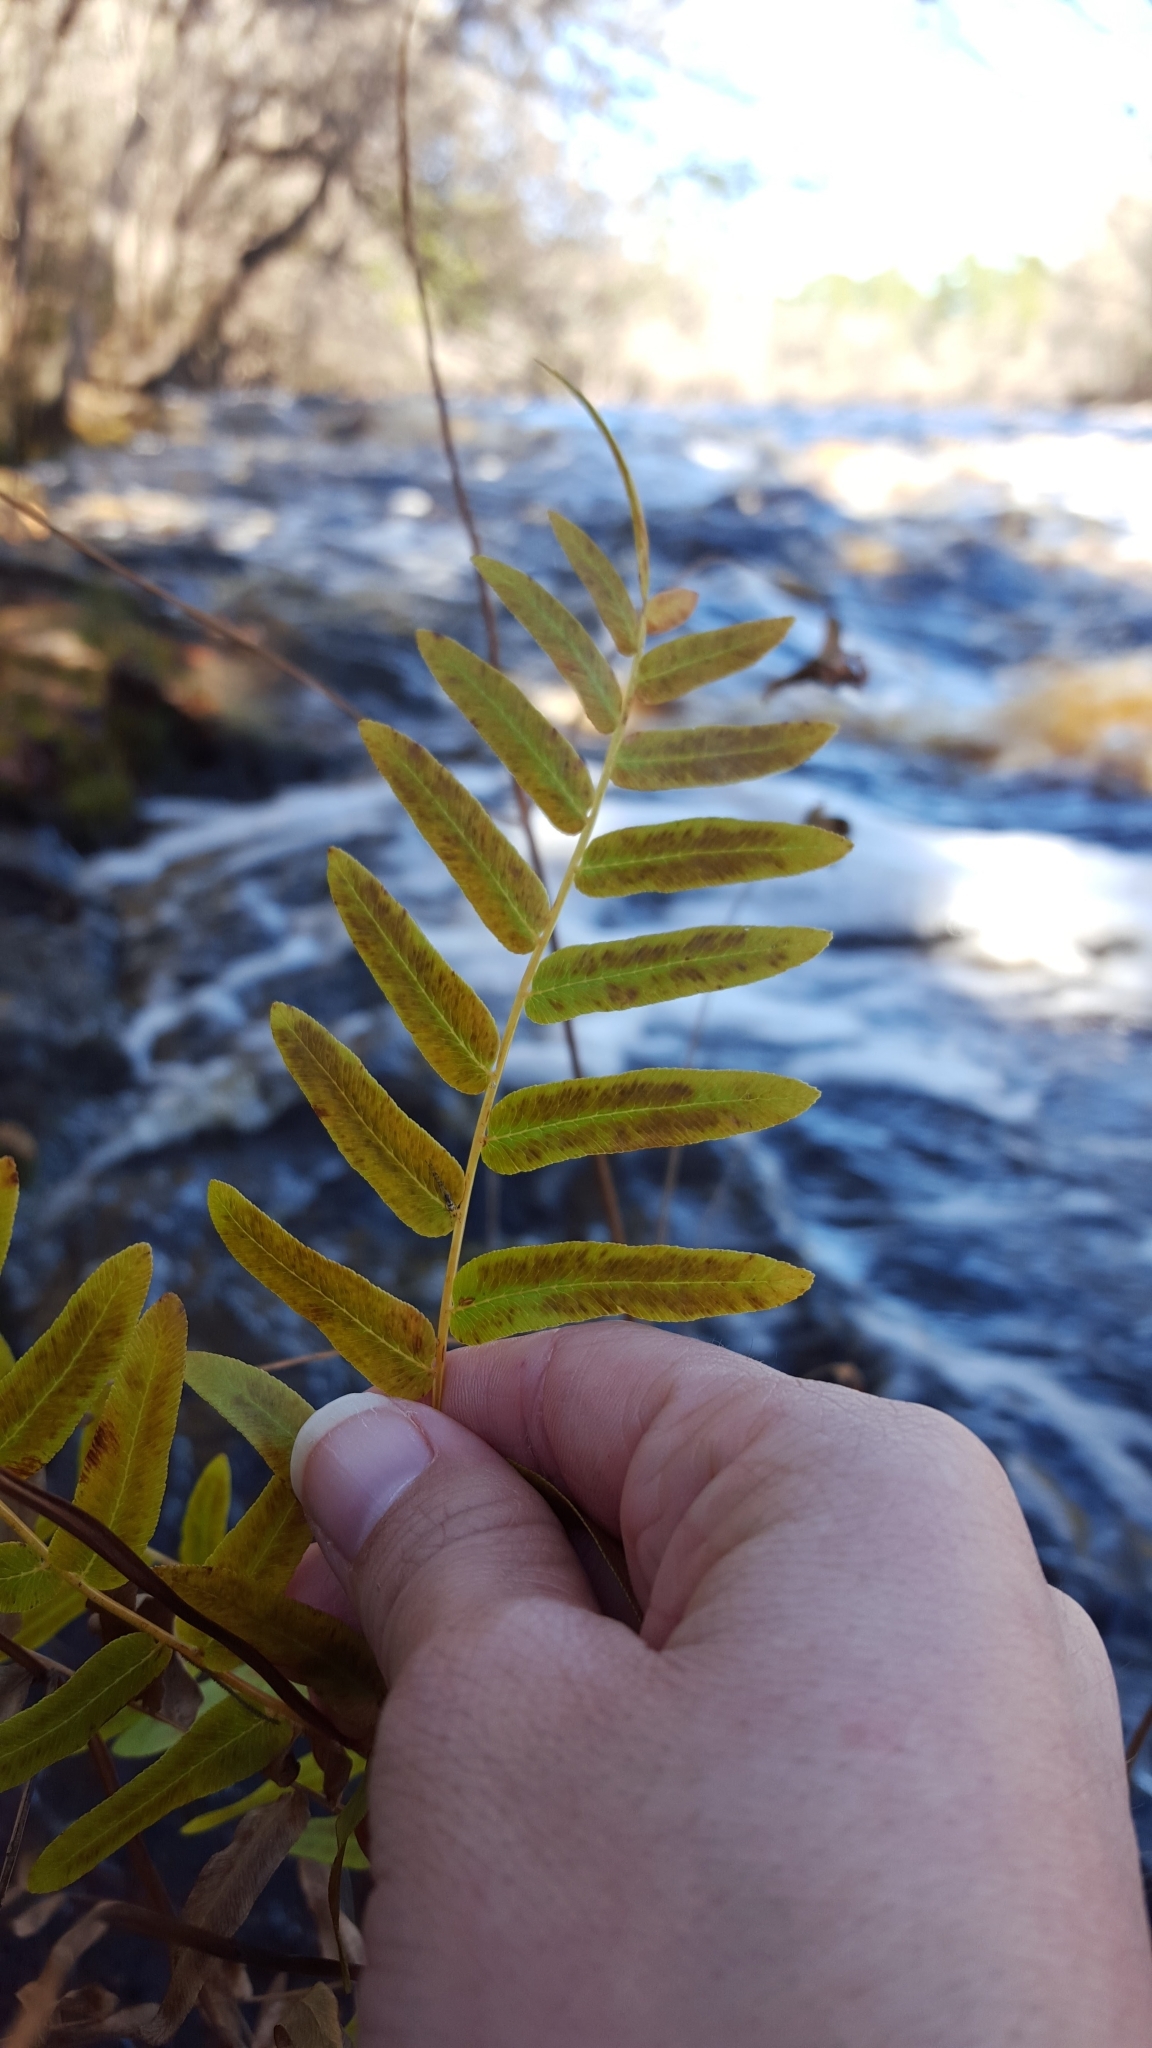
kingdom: Plantae
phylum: Tracheophyta
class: Polypodiopsida
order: Osmundales
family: Osmundaceae
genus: Osmunda
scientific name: Osmunda spectabilis
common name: American royal fern
